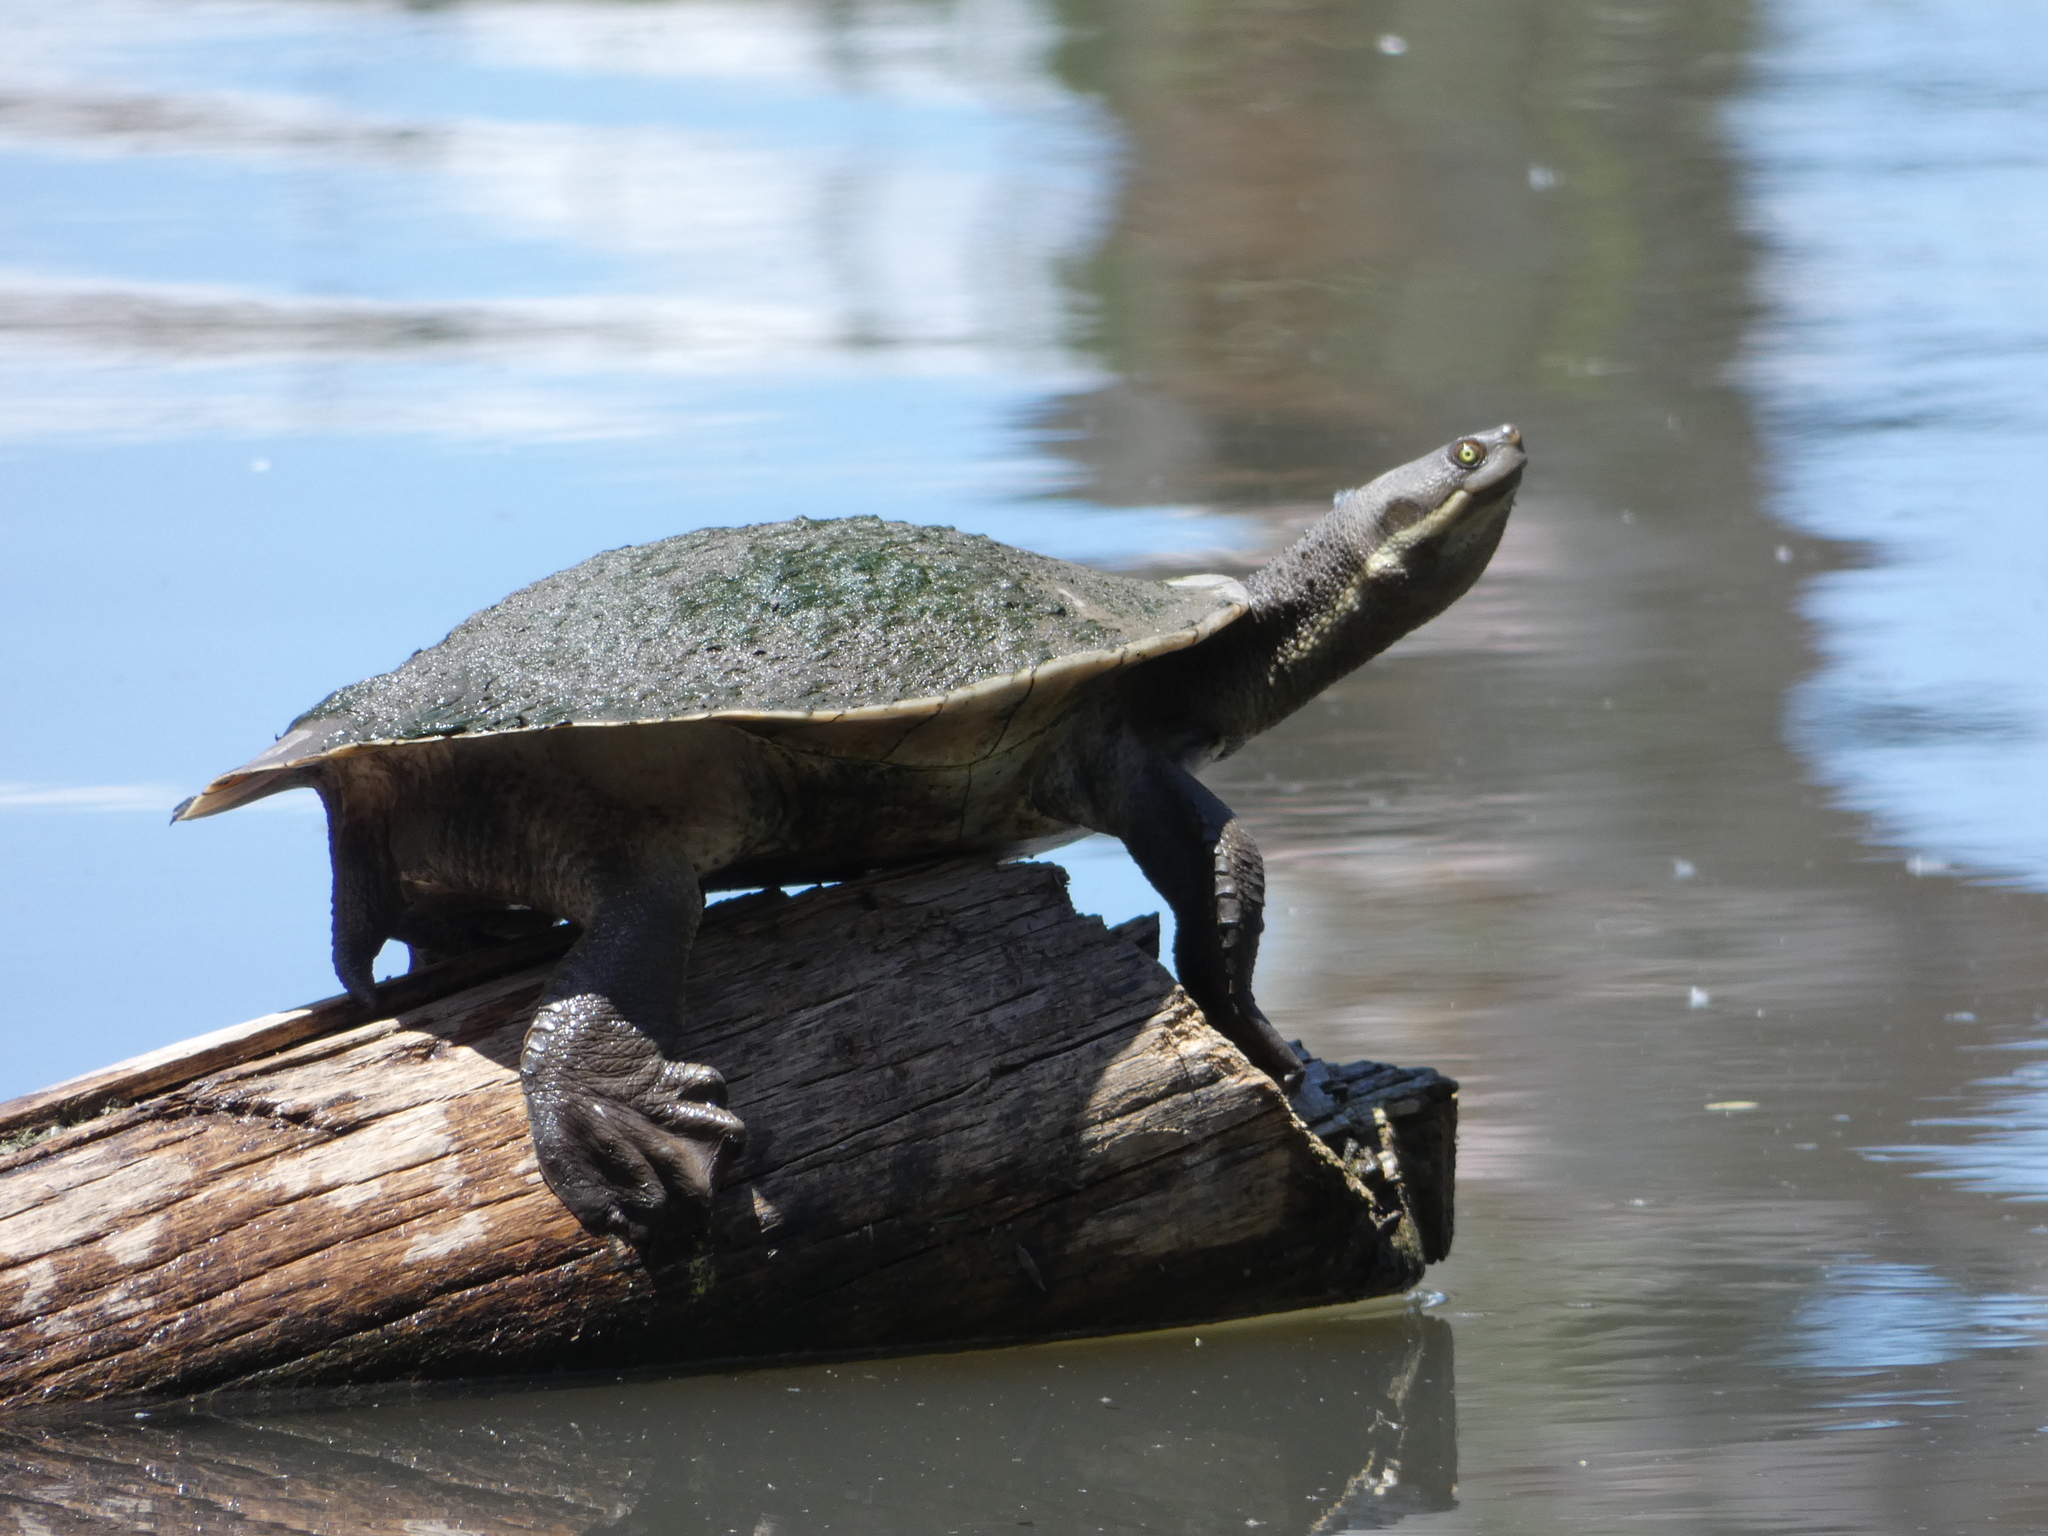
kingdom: Animalia
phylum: Chordata
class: Testudines
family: Chelidae
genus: Emydura
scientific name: Emydura macquarii
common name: Murray river turtle
